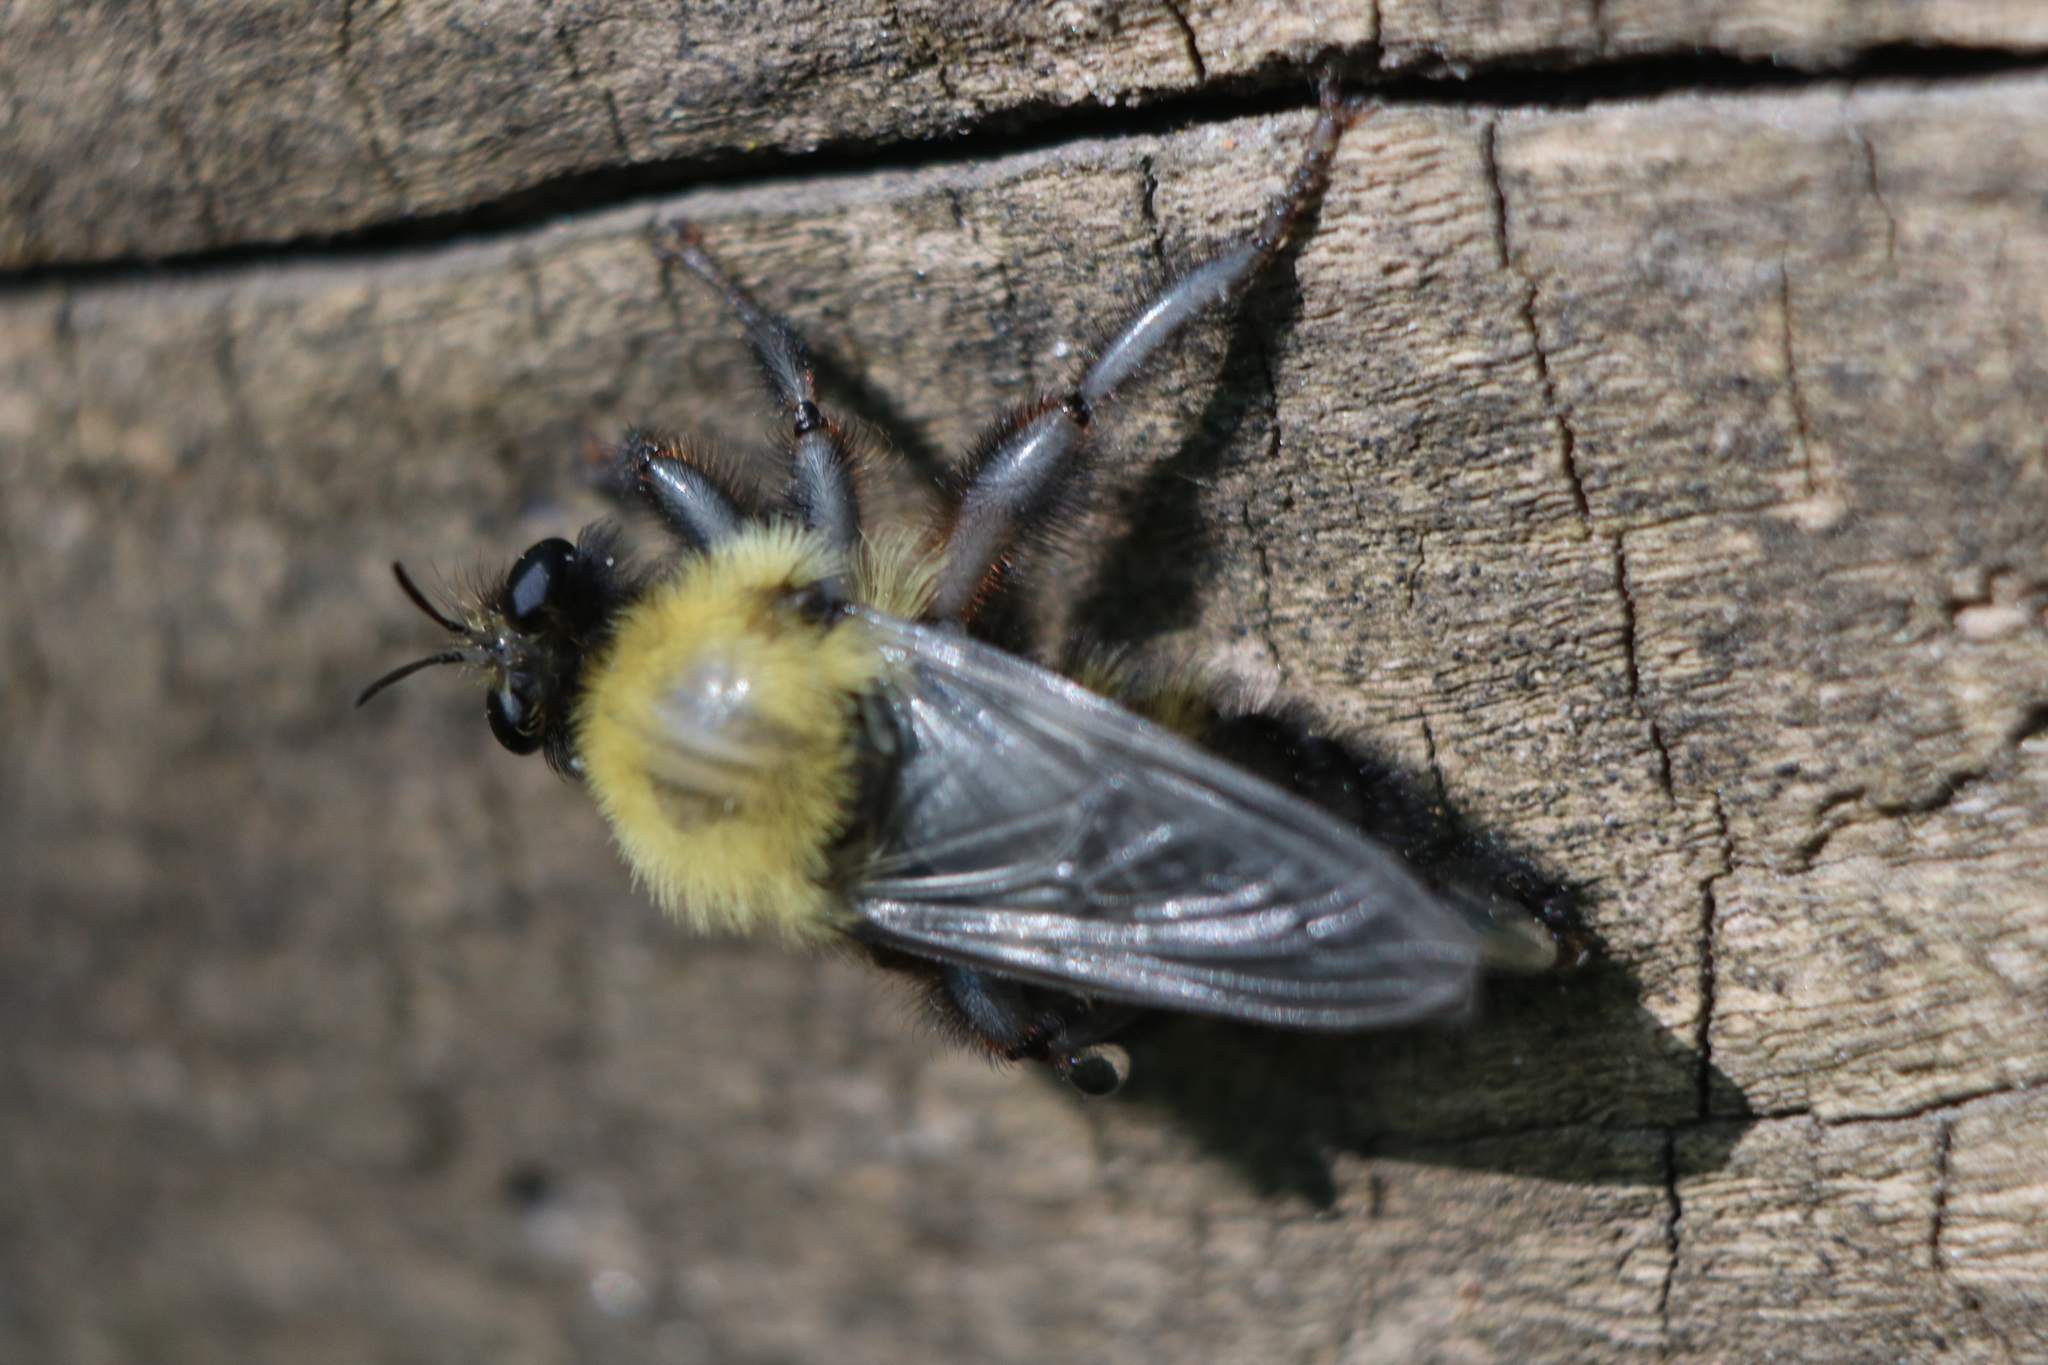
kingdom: Animalia
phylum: Arthropoda
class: Insecta
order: Diptera
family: Asilidae
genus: Laphria
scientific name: Laphria thoracica
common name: Bumble bee mimic robber fly
